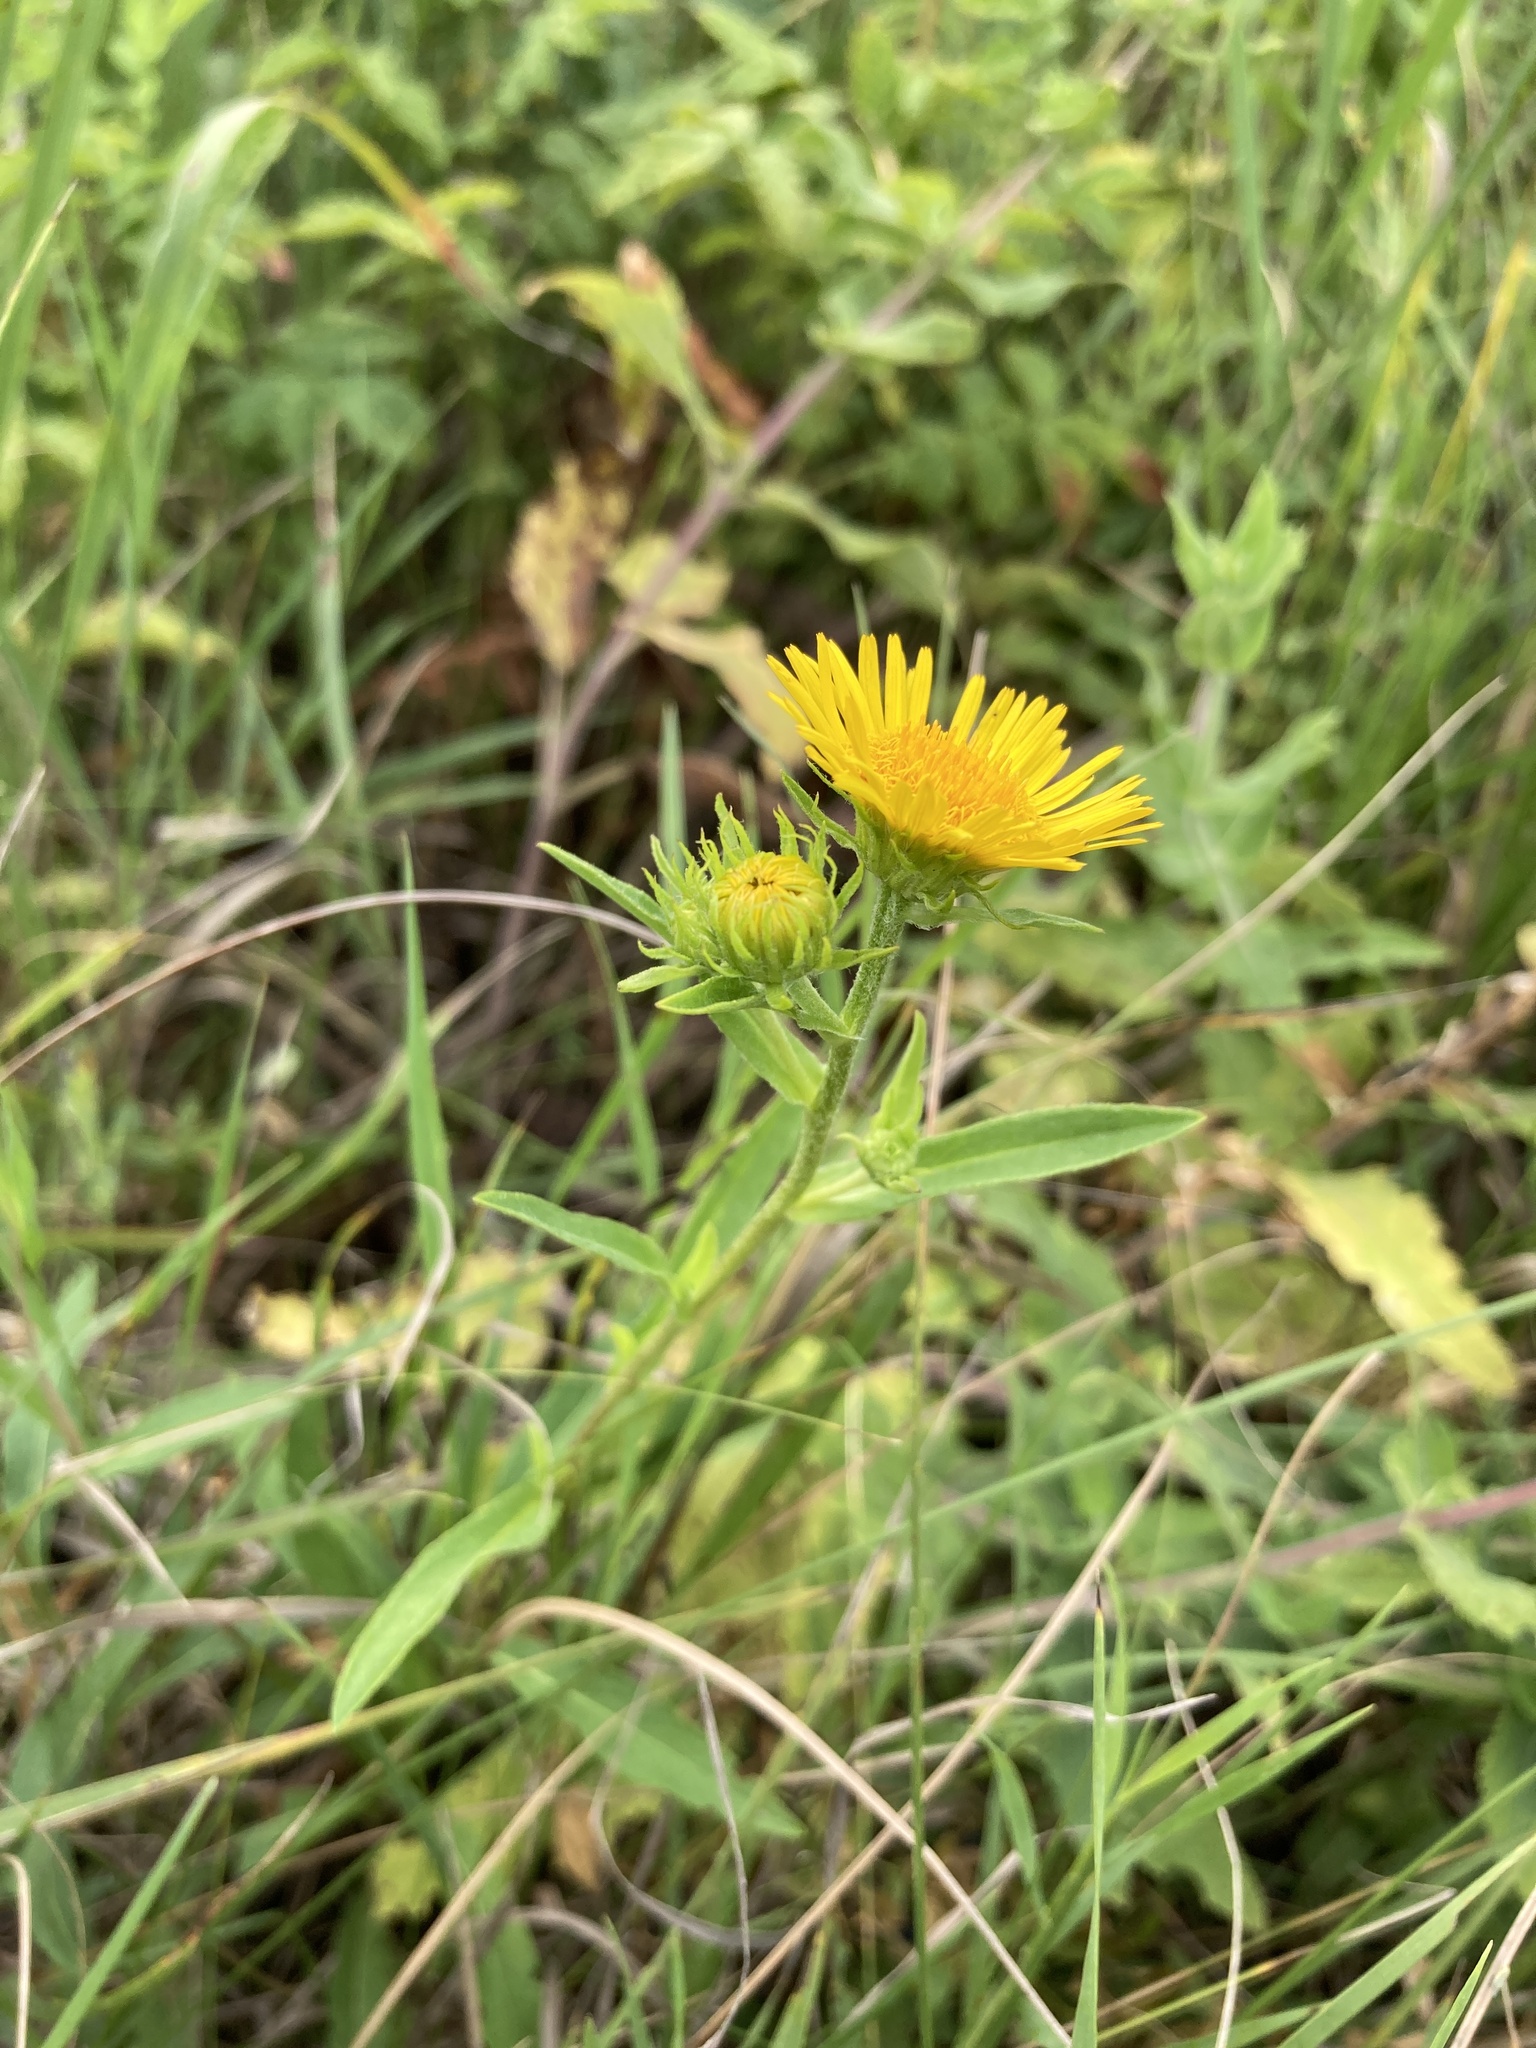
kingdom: Plantae
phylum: Tracheophyta
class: Magnoliopsida
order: Asterales
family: Asteraceae
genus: Pentanema
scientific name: Pentanema britannicum
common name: British elecampane
